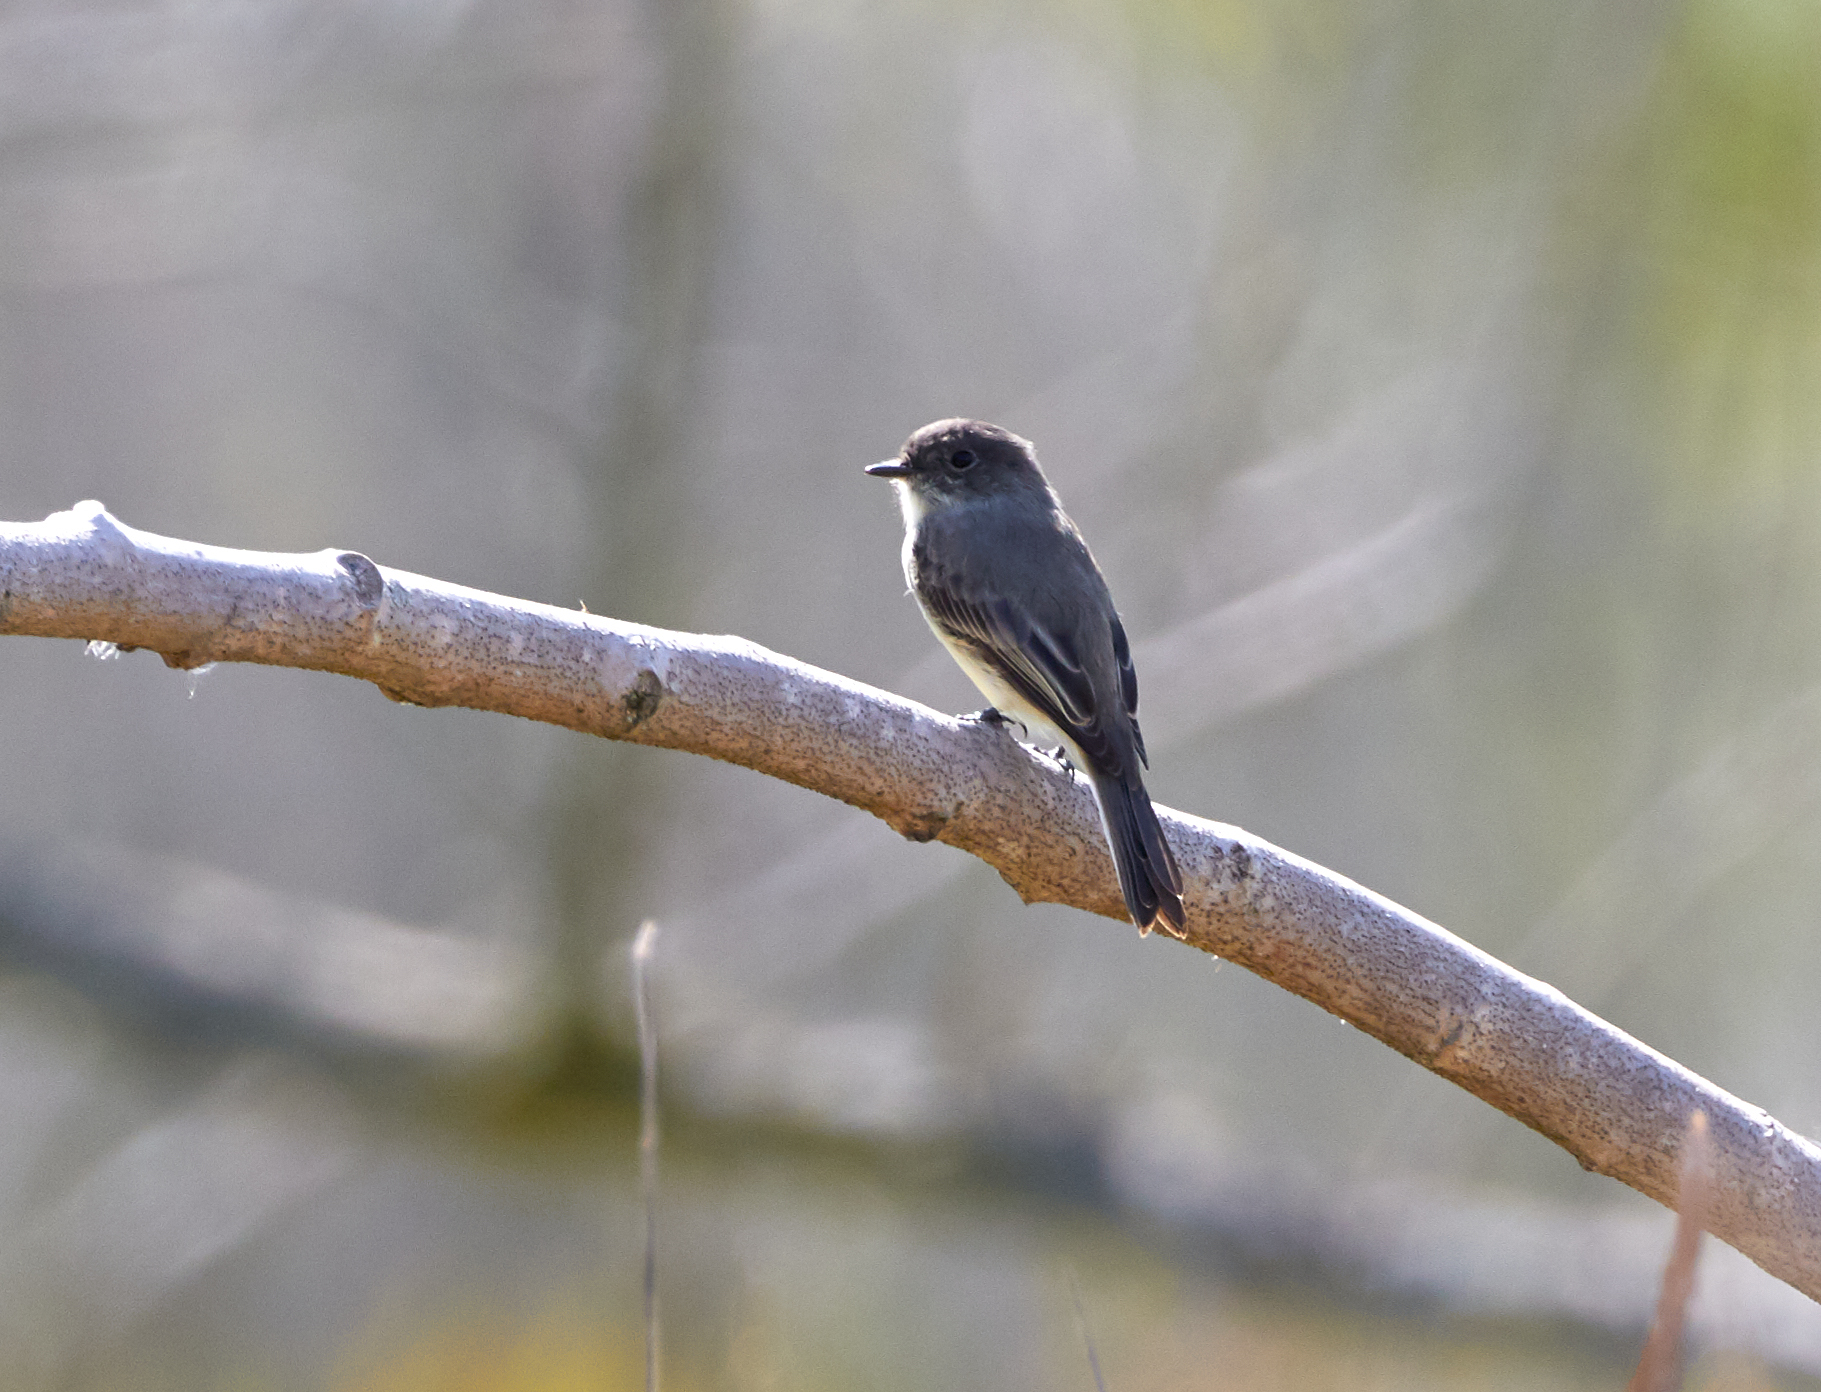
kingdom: Animalia
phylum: Chordata
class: Aves
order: Passeriformes
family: Tyrannidae
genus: Sayornis
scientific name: Sayornis phoebe
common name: Eastern phoebe
